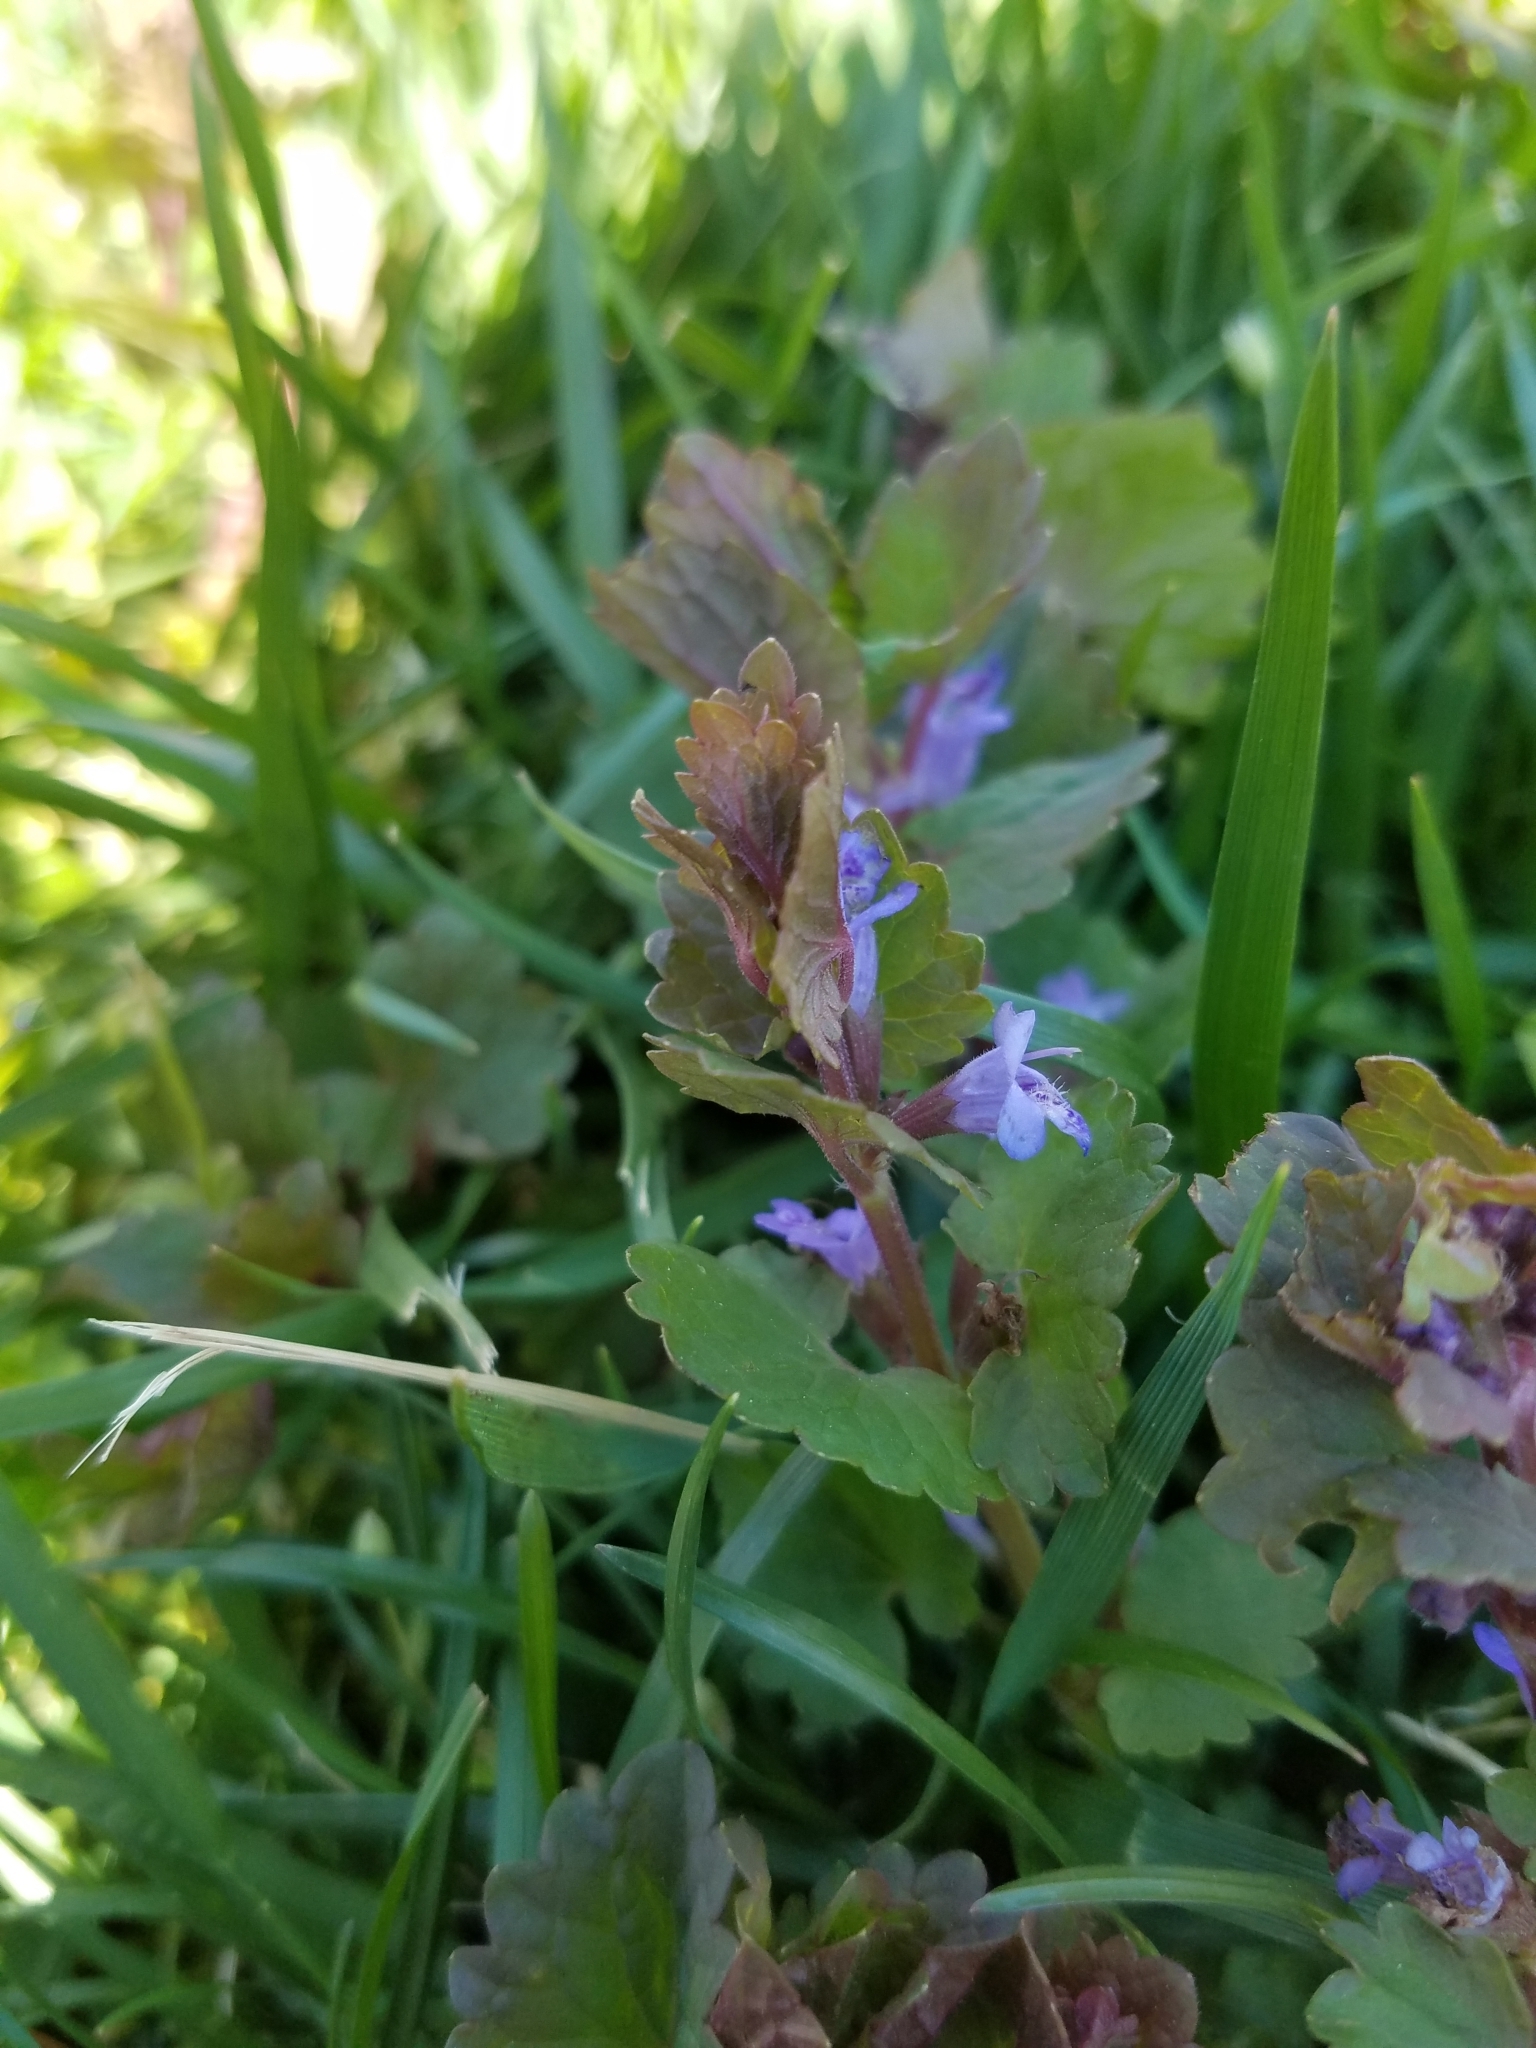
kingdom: Plantae
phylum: Tracheophyta
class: Magnoliopsida
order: Lamiales
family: Lamiaceae
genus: Glechoma
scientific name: Glechoma hederacea
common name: Ground ivy
